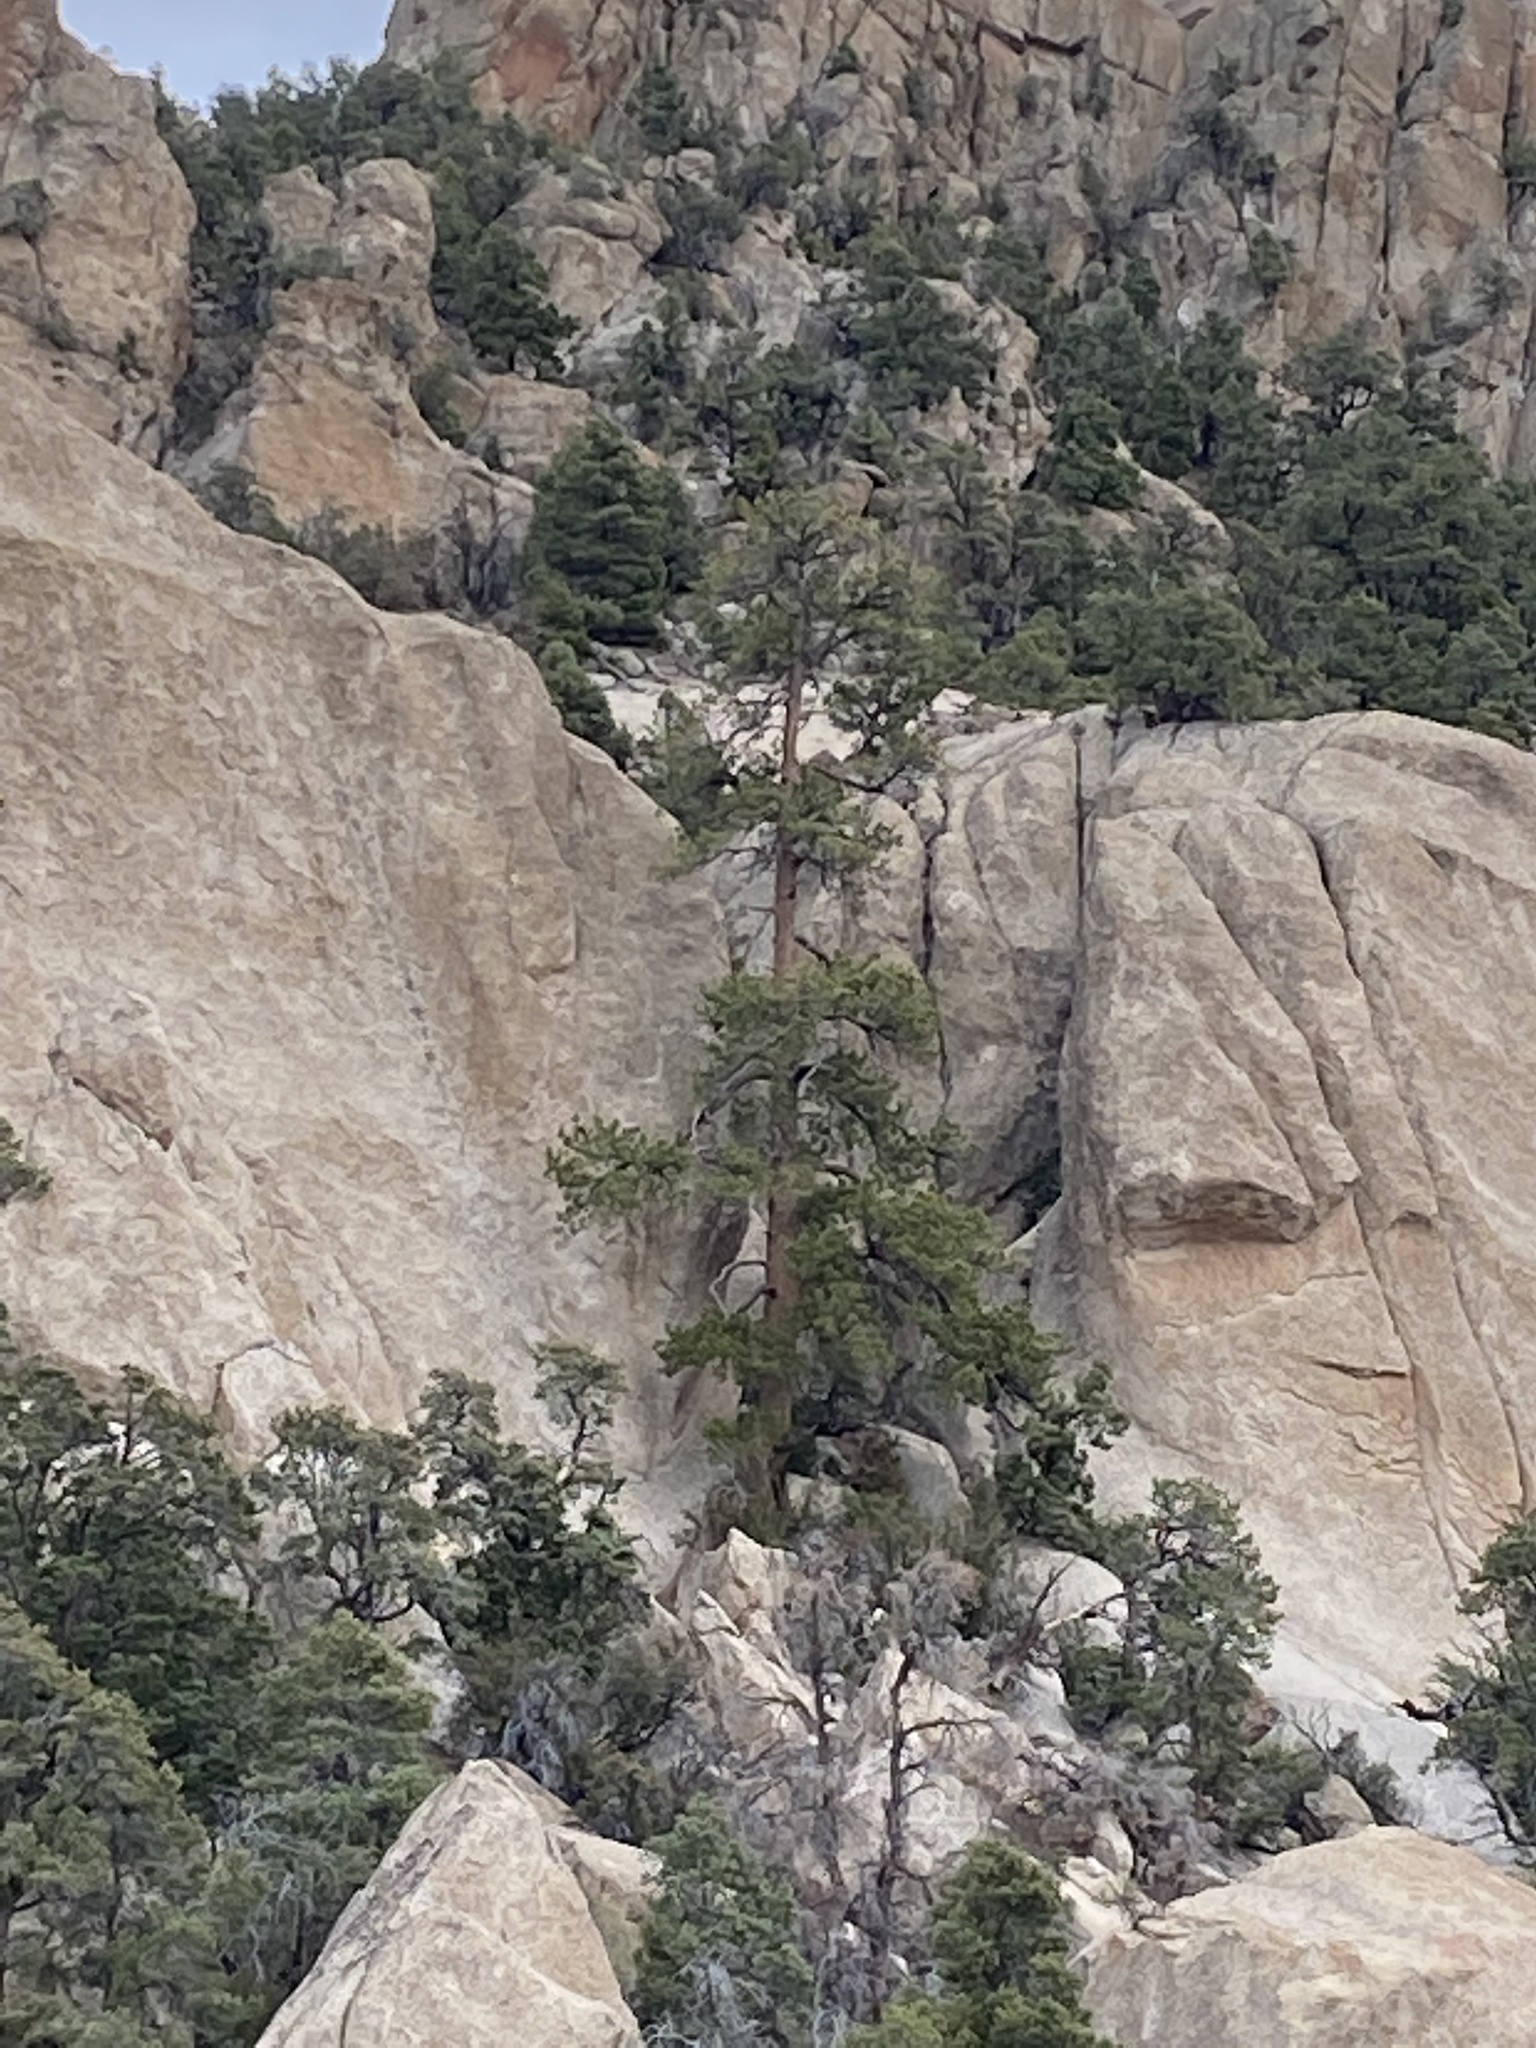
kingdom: Plantae
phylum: Tracheophyta
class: Pinopsida
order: Pinales
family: Pinaceae
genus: Pinus
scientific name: Pinus ponderosa
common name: Western yellow-pine
